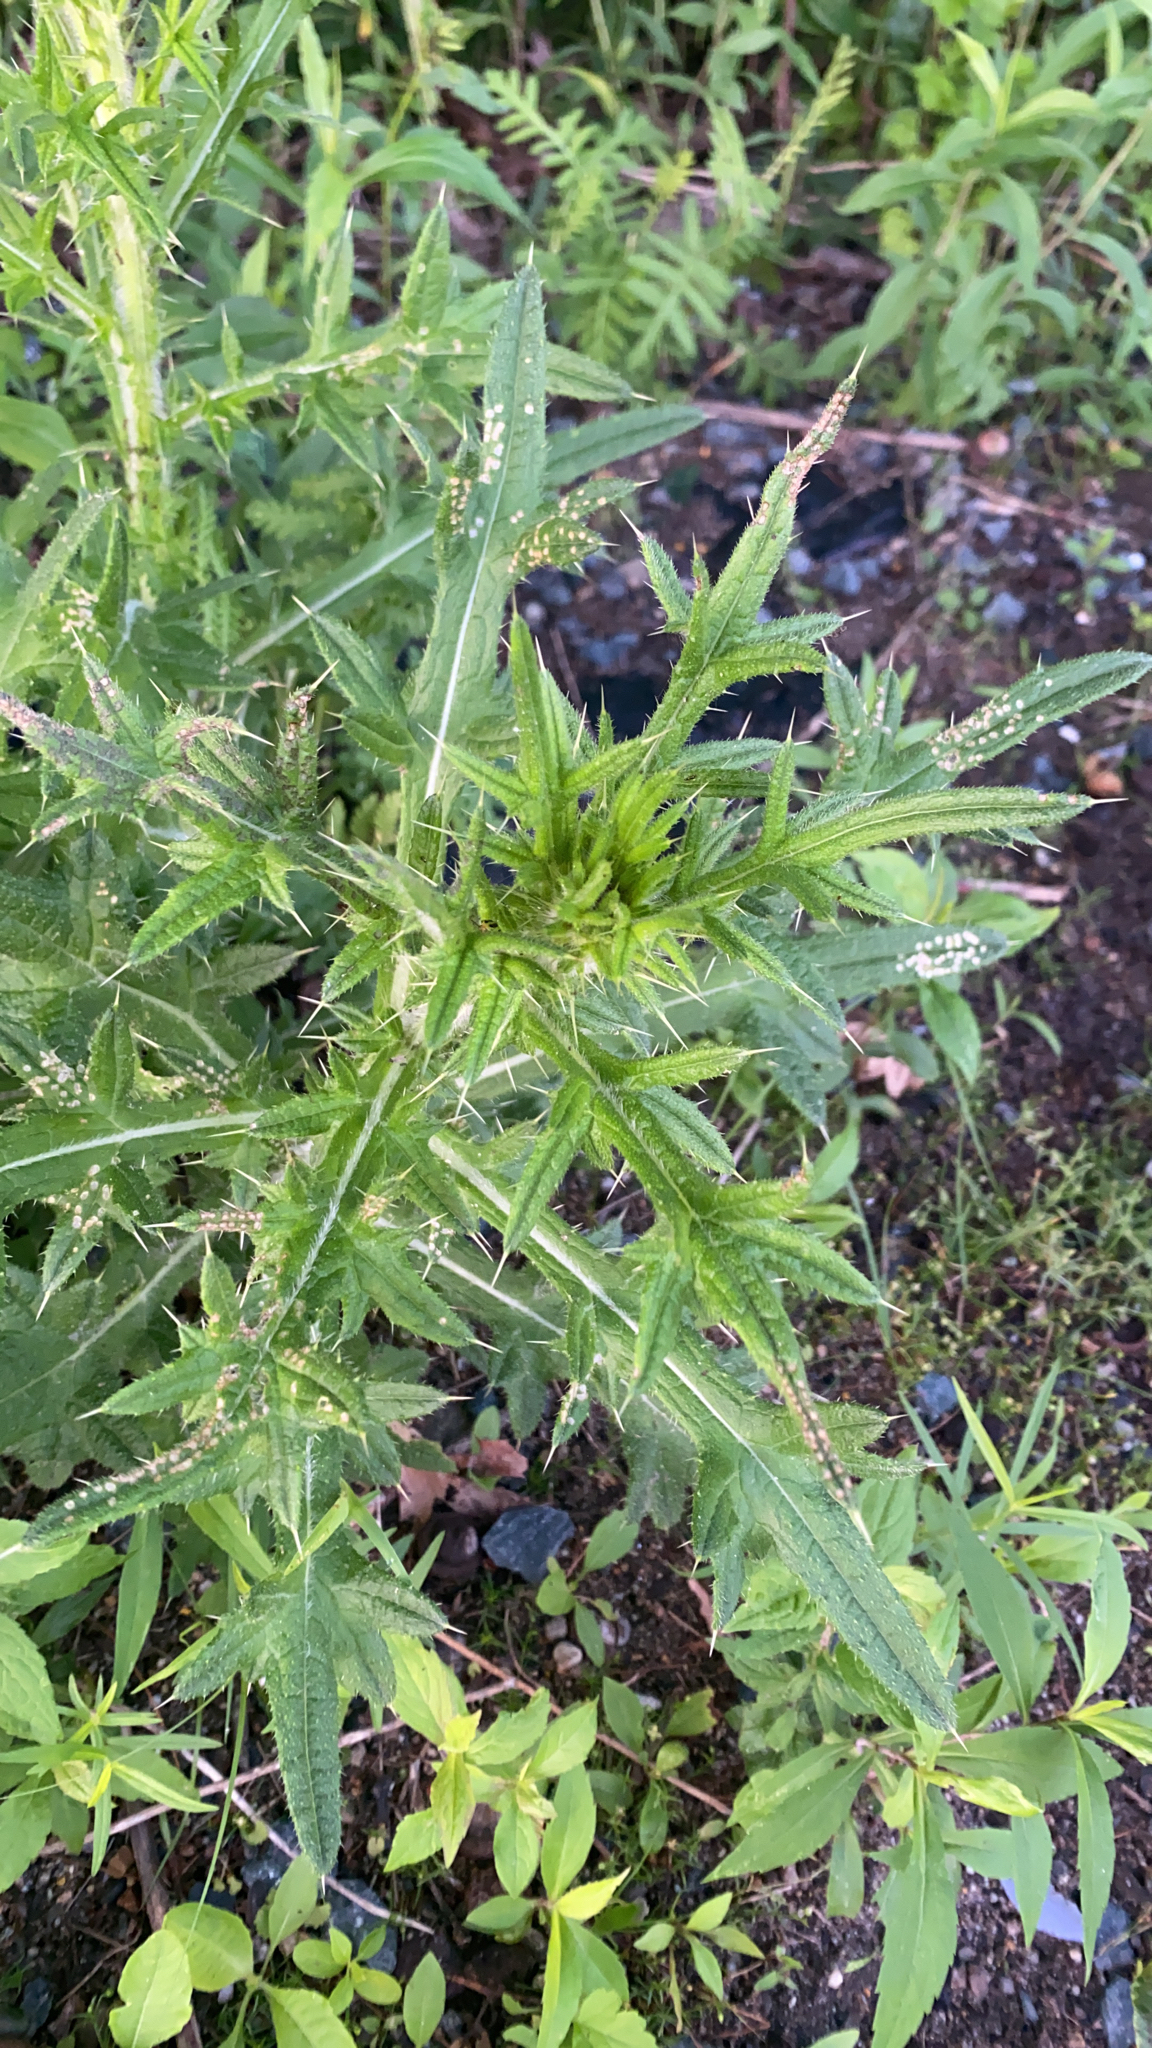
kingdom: Plantae
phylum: Tracheophyta
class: Magnoliopsida
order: Asterales
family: Asteraceae
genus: Cirsium
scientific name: Cirsium vulgare
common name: Bull thistle
